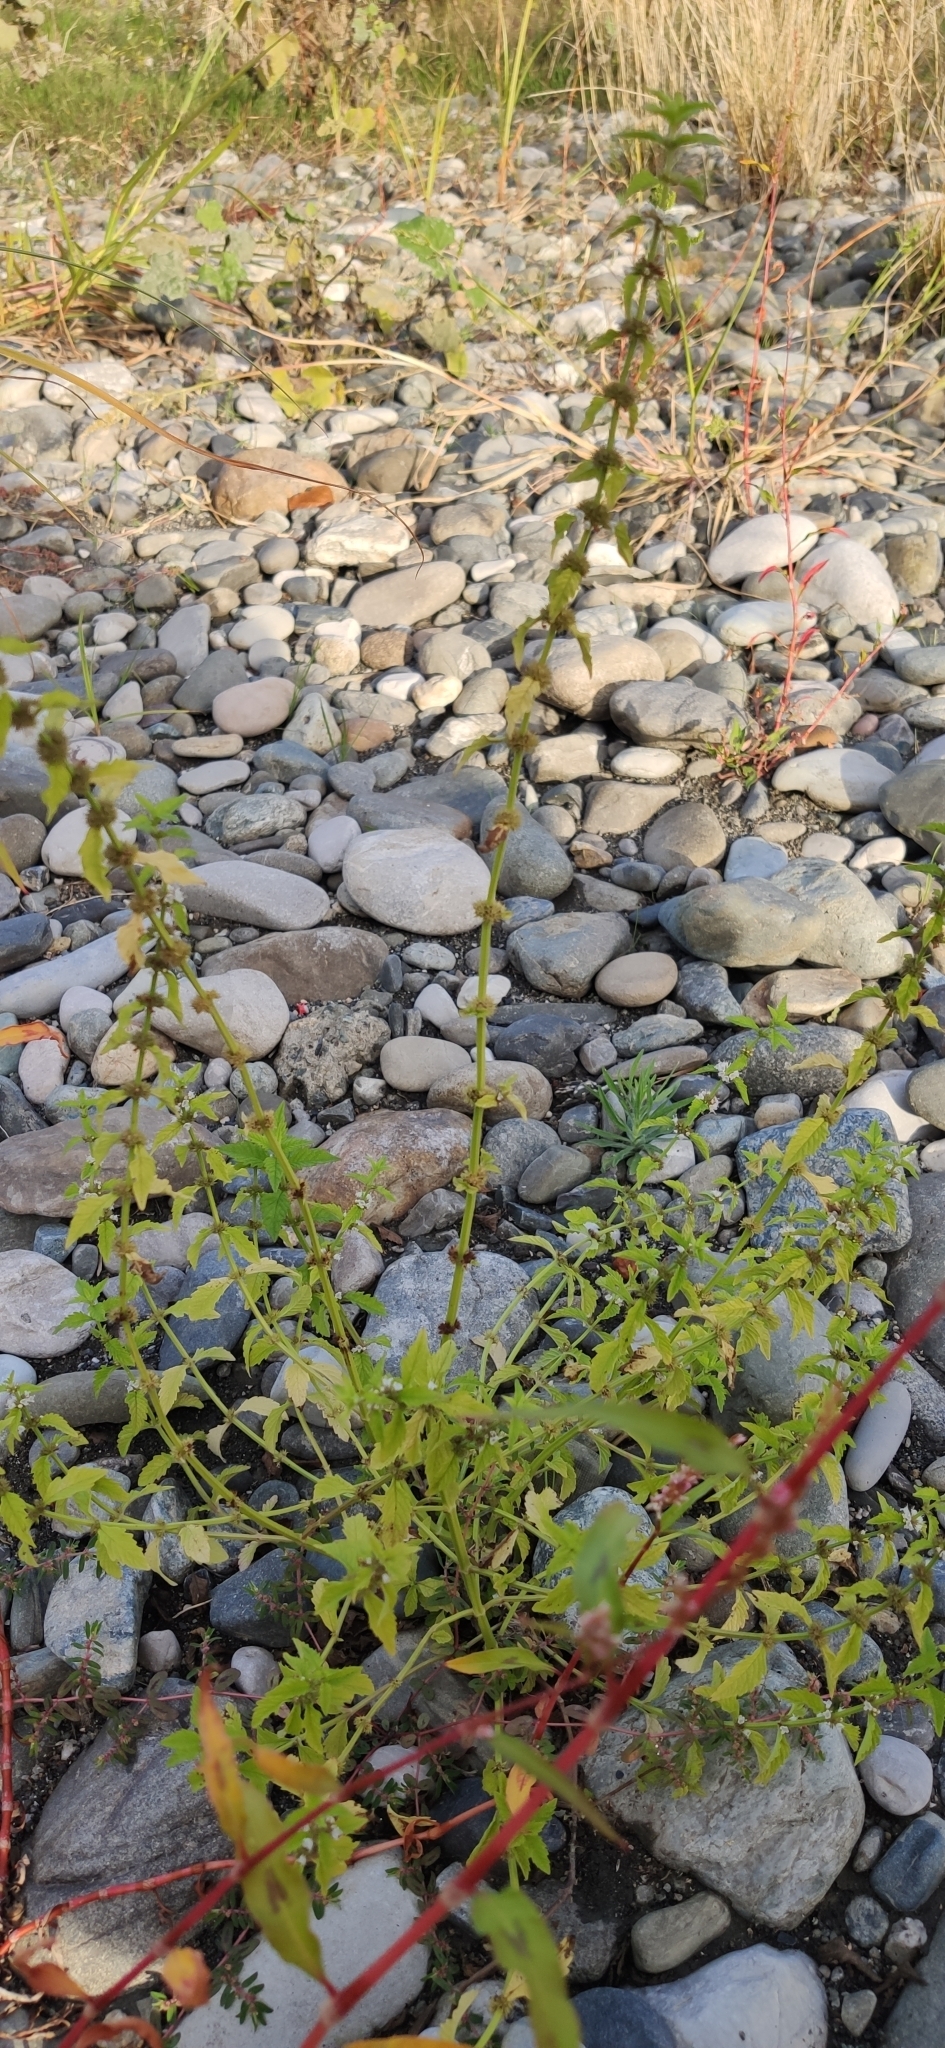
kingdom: Plantae
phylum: Tracheophyta
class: Magnoliopsida
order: Lamiales
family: Lamiaceae
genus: Lycopus
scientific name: Lycopus europaeus
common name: European bugleweed
